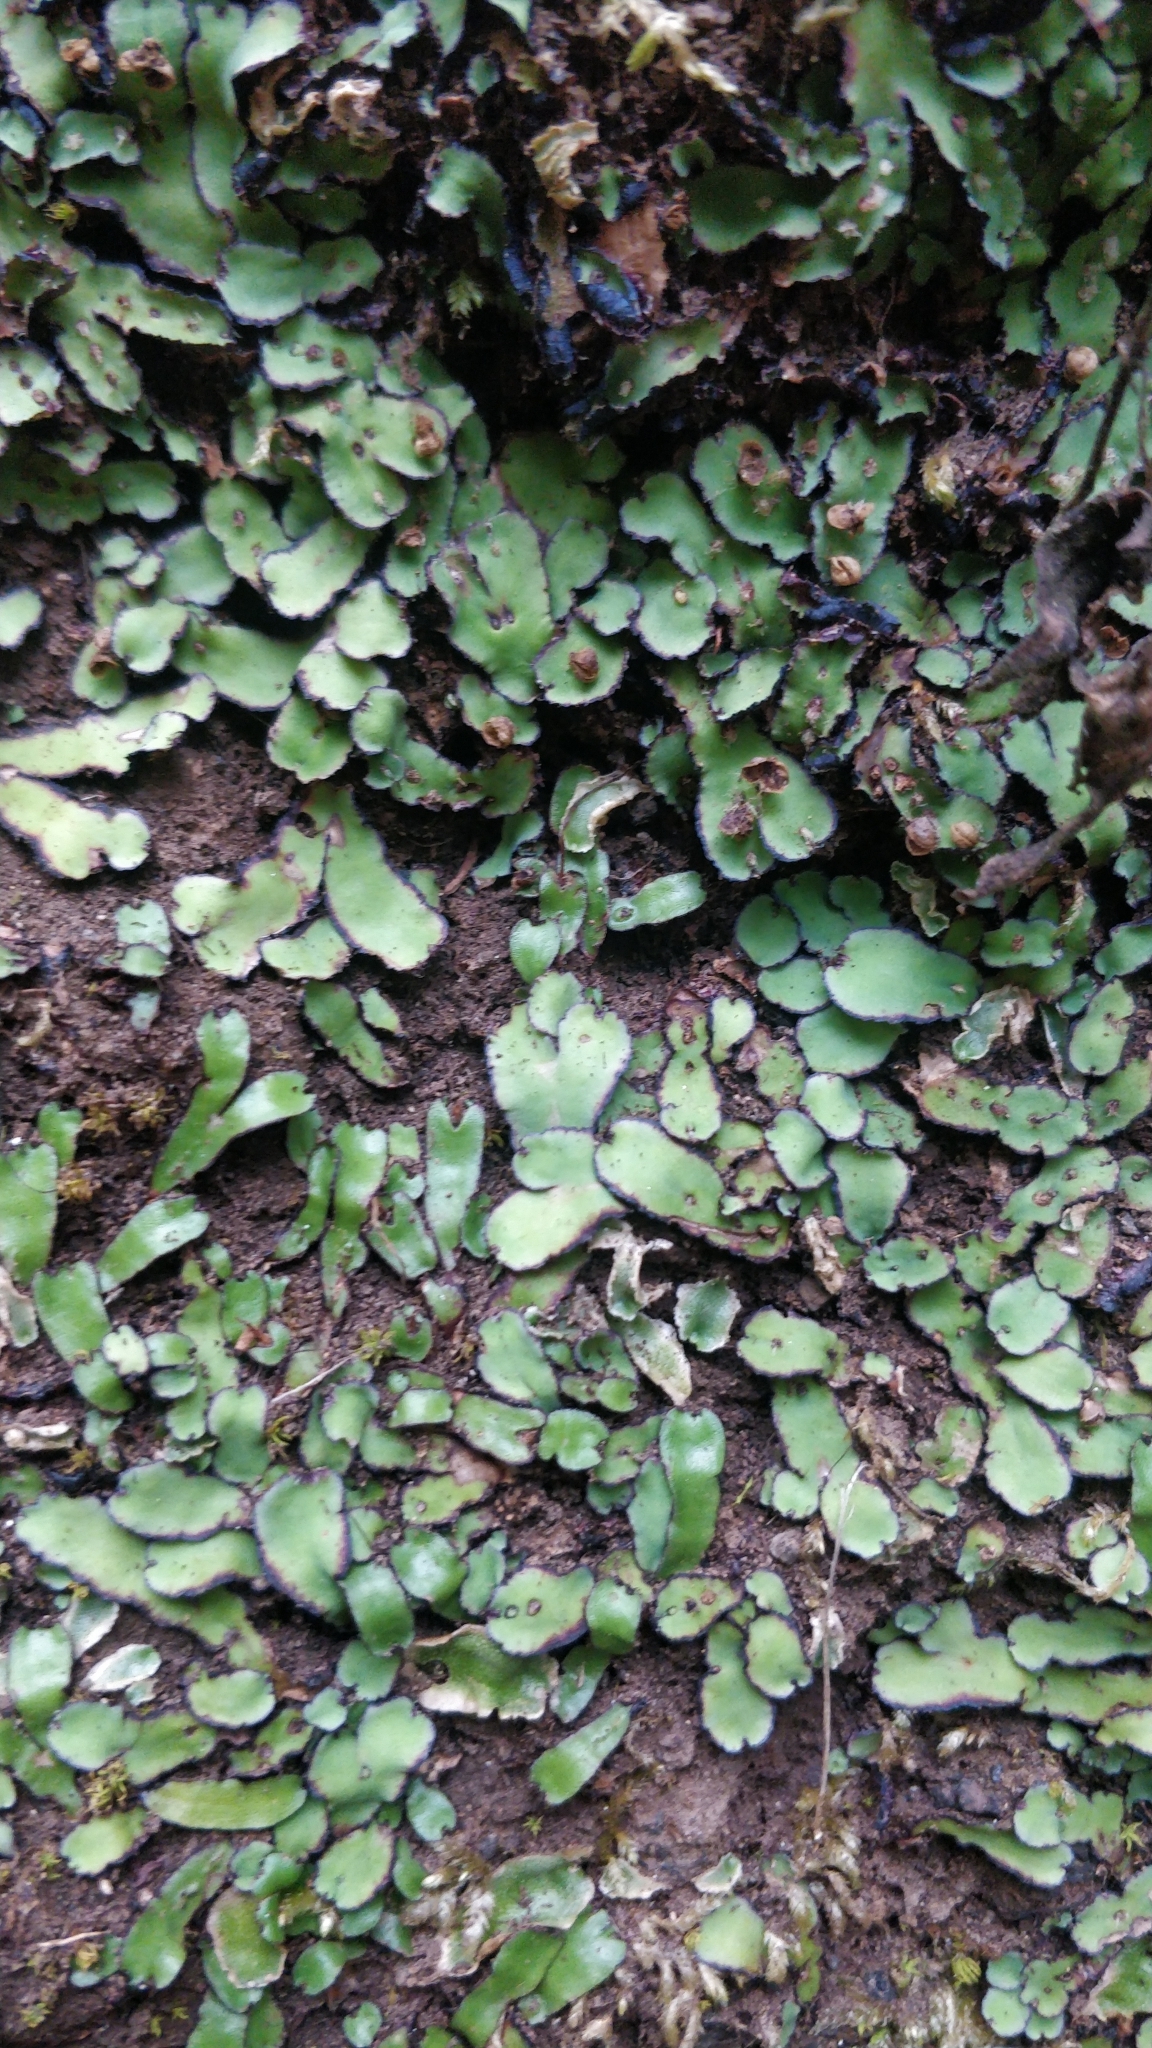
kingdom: Plantae
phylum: Marchantiophyta
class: Marchantiopsida
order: Marchantiales
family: Aytoniaceae
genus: Plagiochasma
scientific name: Plagiochasma rupestre
